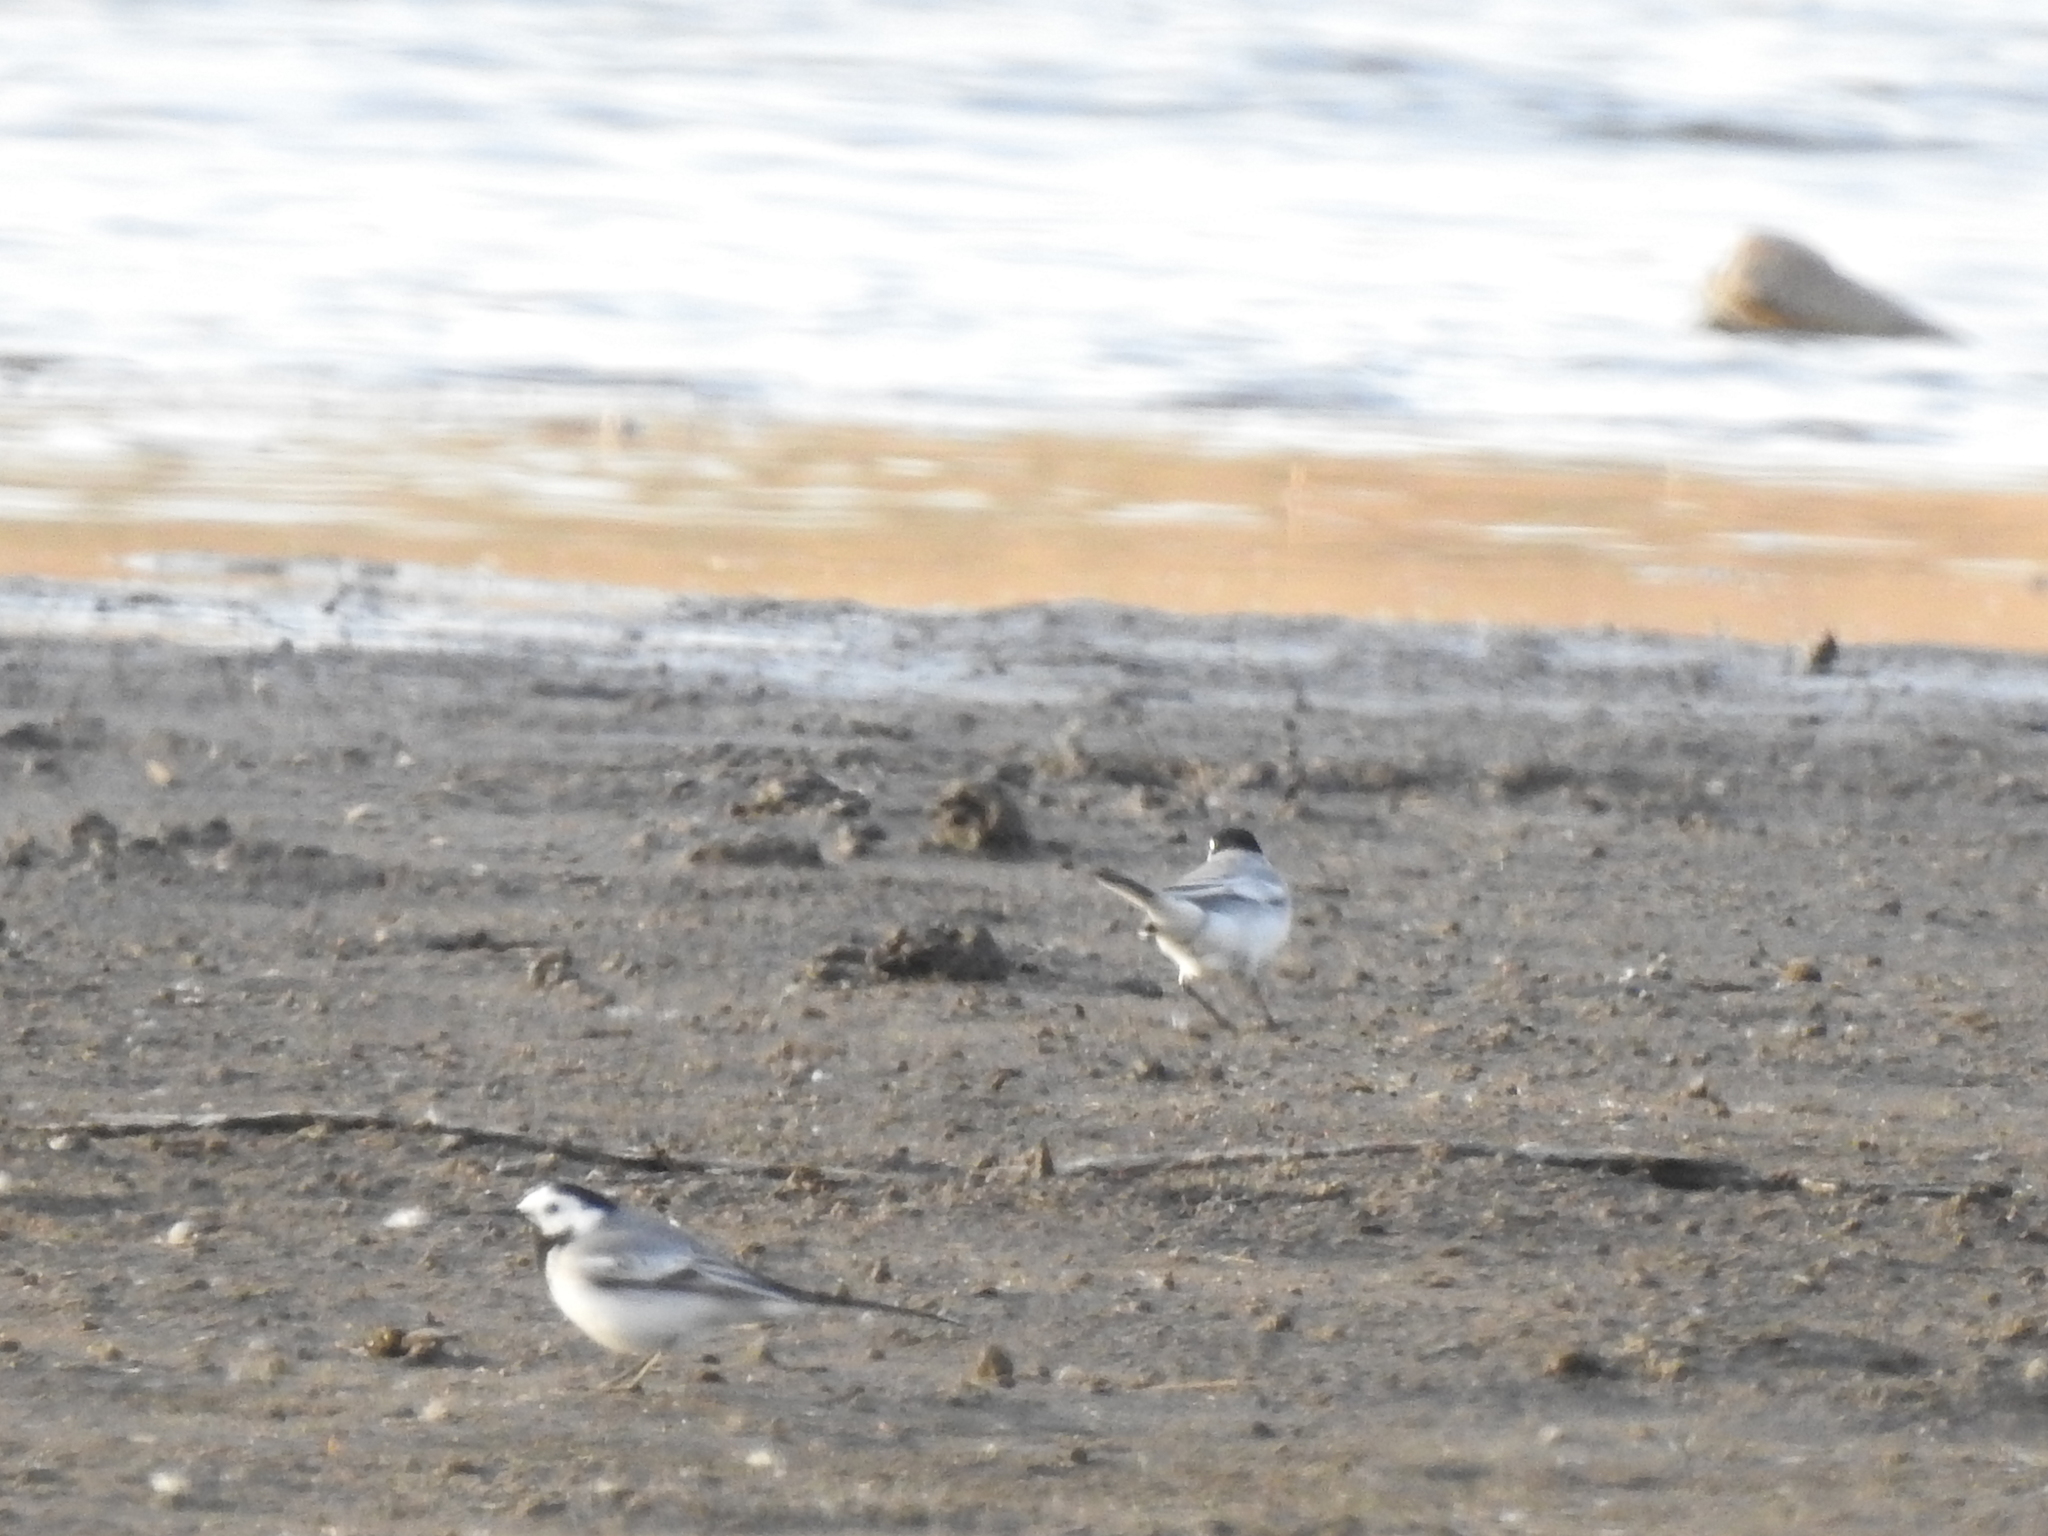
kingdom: Animalia
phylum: Chordata
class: Aves
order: Passeriformes
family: Motacillidae
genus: Motacilla
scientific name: Motacilla alba
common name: White wagtail
